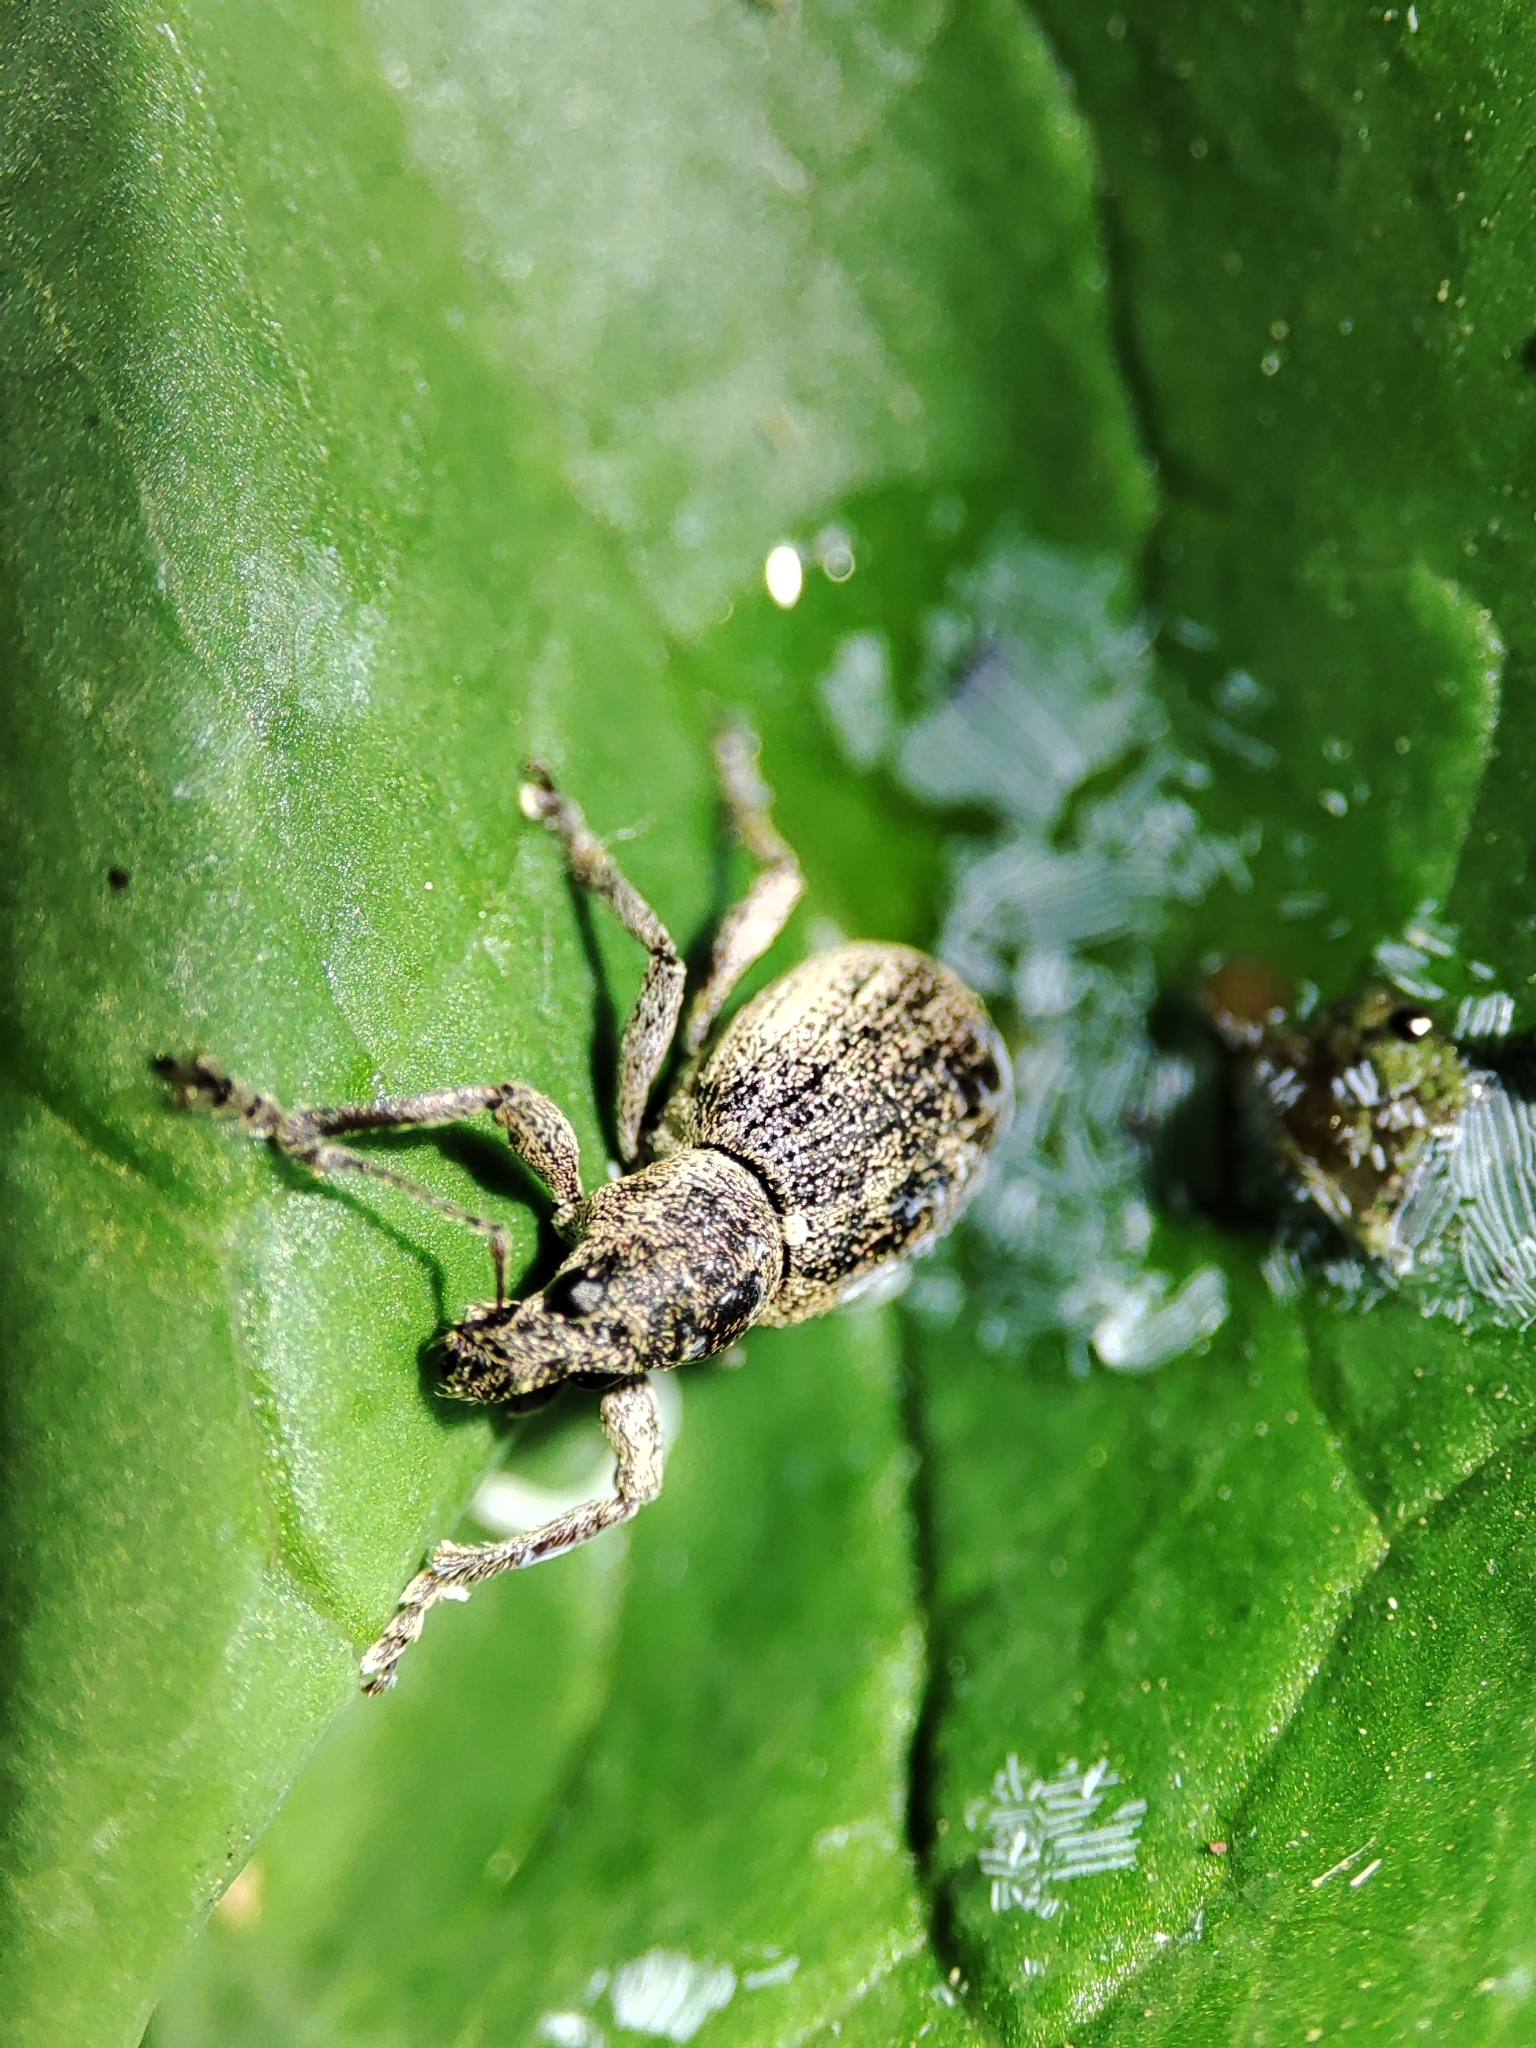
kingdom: Animalia
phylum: Arthropoda
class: Insecta
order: Coleoptera
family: Curculionidae
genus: Sciaphobus
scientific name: Sciaphobus squalidus
